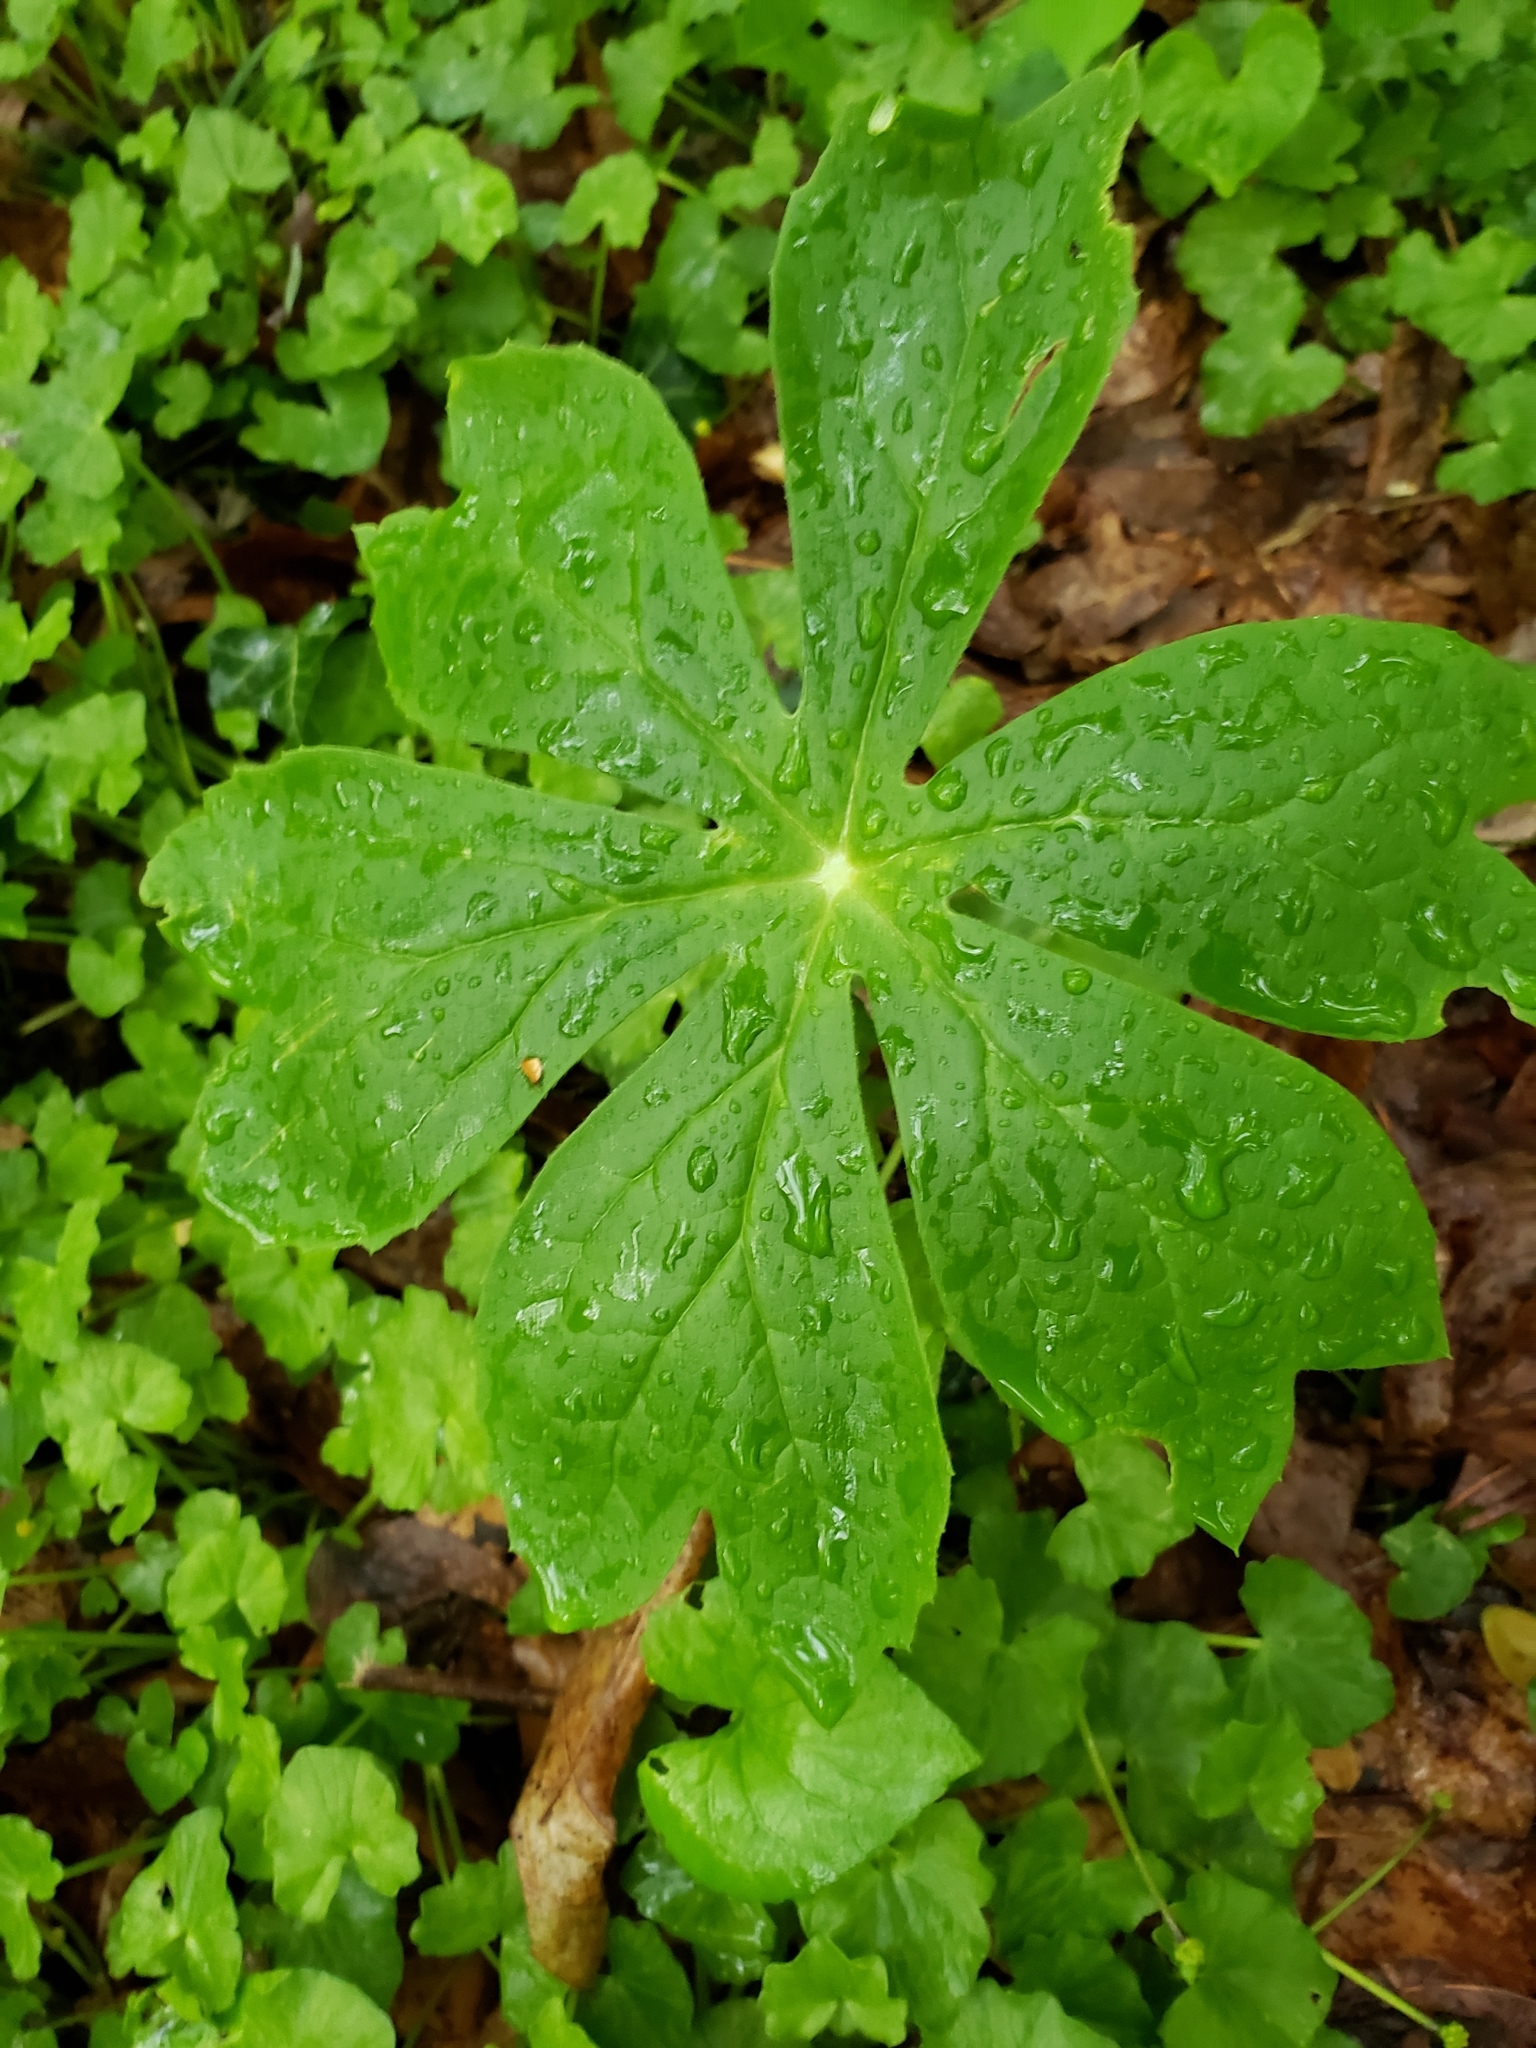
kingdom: Plantae
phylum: Tracheophyta
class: Magnoliopsida
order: Ranunculales
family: Berberidaceae
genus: Podophyllum
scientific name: Podophyllum peltatum
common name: Wild mandrake
